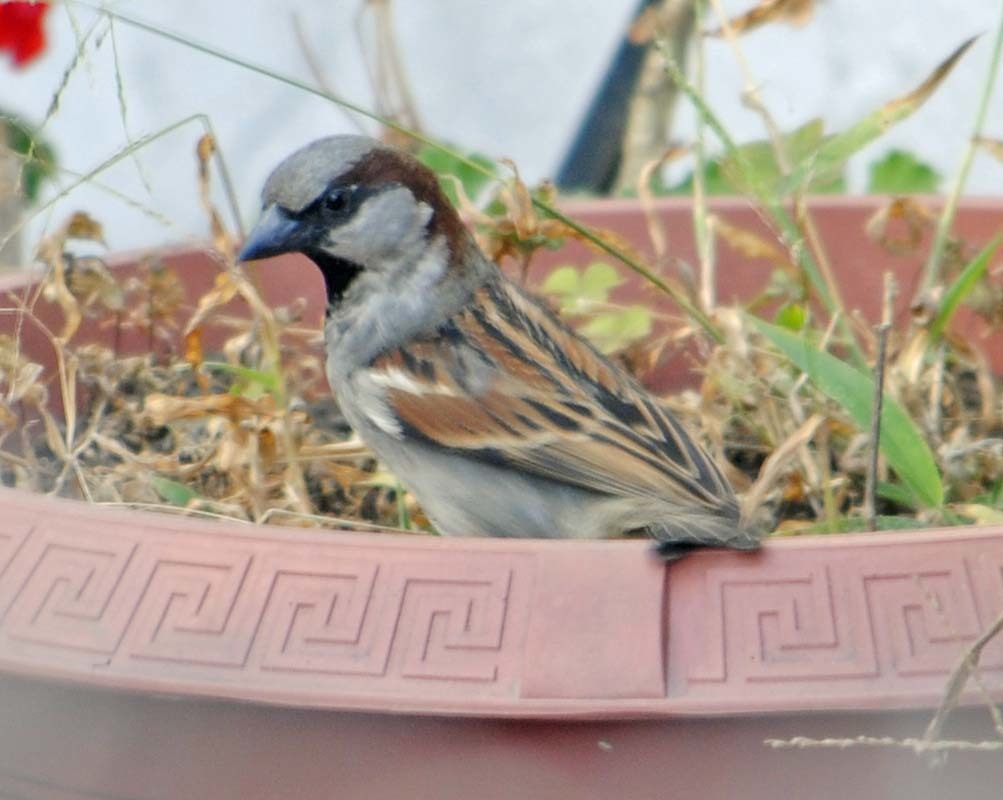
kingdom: Animalia
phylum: Chordata
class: Aves
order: Passeriformes
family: Passeridae
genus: Passer
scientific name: Passer domesticus
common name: House sparrow
